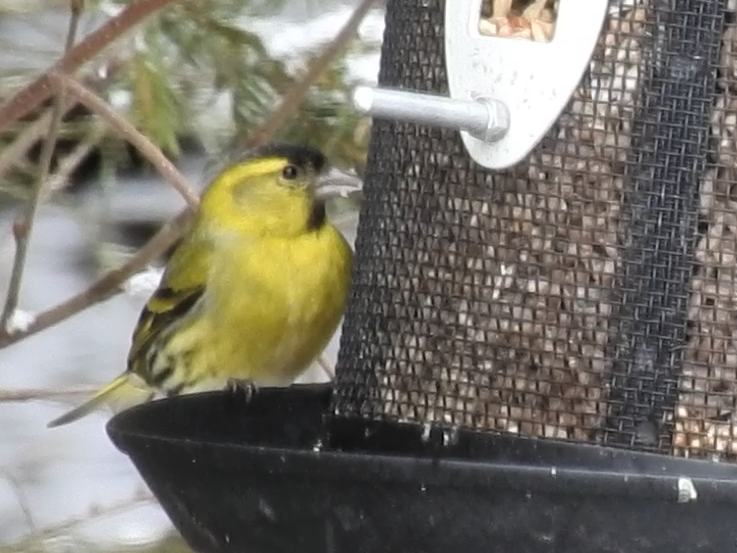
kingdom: Animalia
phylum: Chordata
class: Aves
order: Passeriformes
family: Fringillidae
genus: Spinus
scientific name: Spinus spinus
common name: Eurasian siskin
